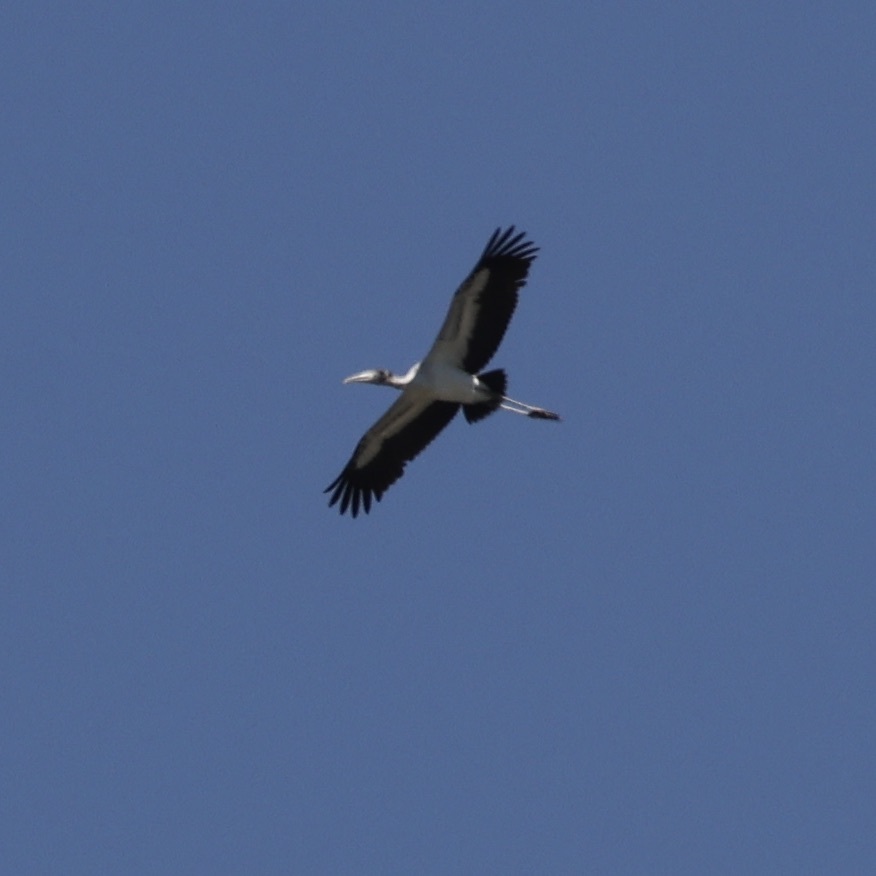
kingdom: Animalia
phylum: Chordata
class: Aves
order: Ciconiiformes
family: Ciconiidae
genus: Mycteria
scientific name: Mycteria americana
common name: Wood stork
